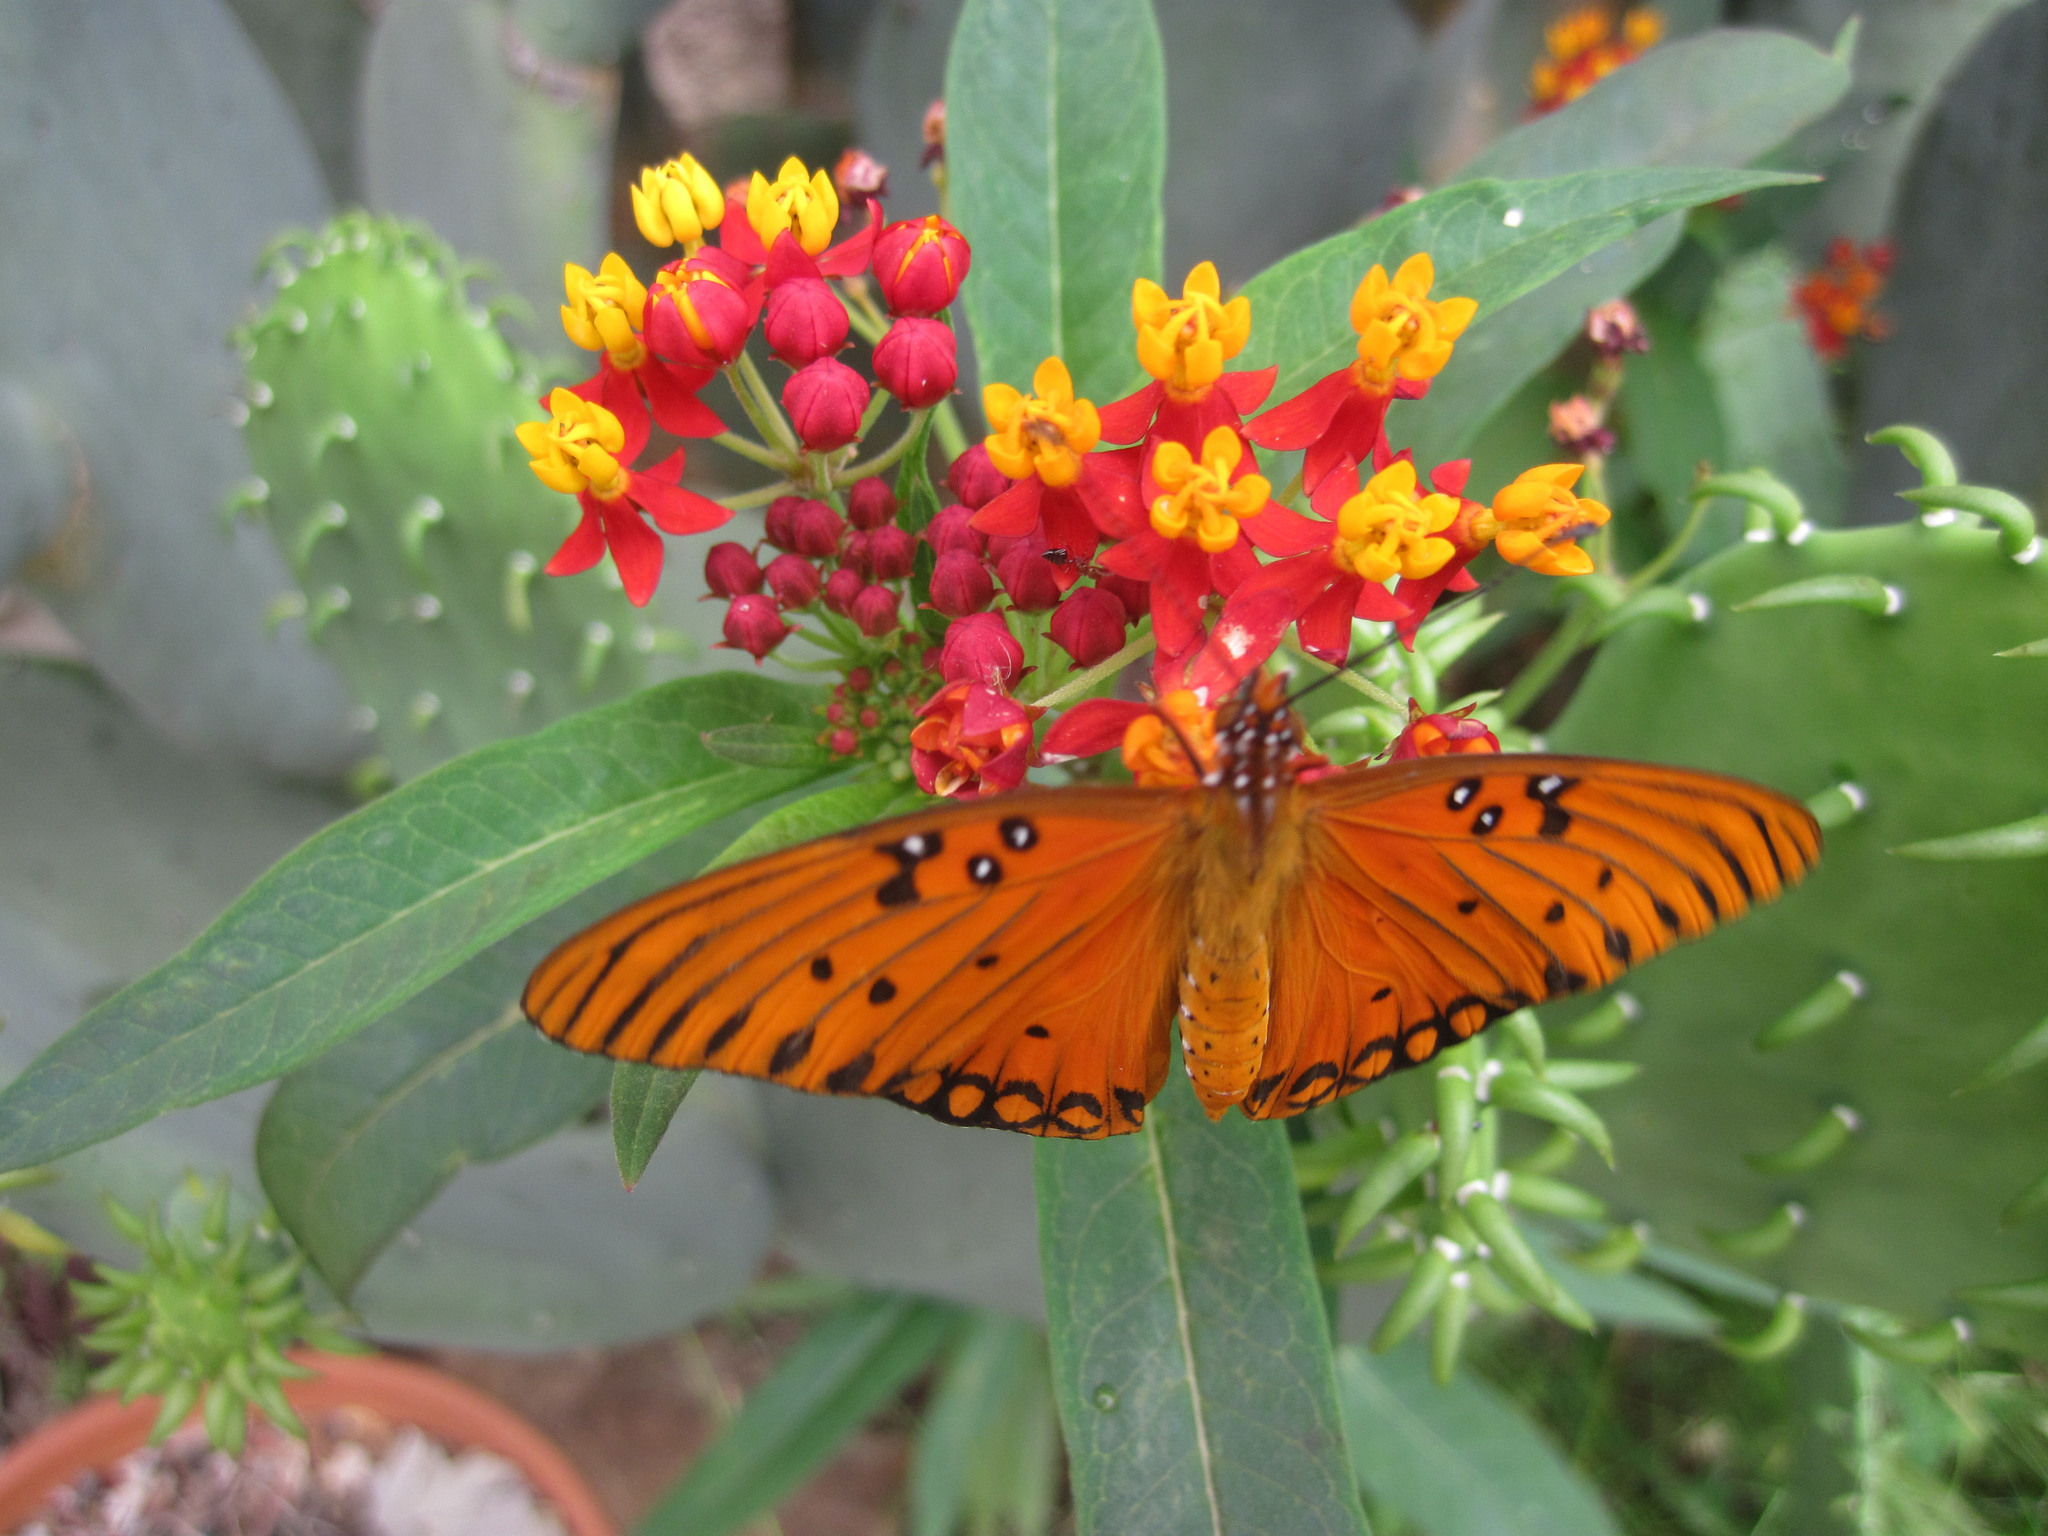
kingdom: Animalia
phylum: Arthropoda
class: Insecta
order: Lepidoptera
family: Nymphalidae
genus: Dione
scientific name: Dione vanillae
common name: Gulf fritillary
